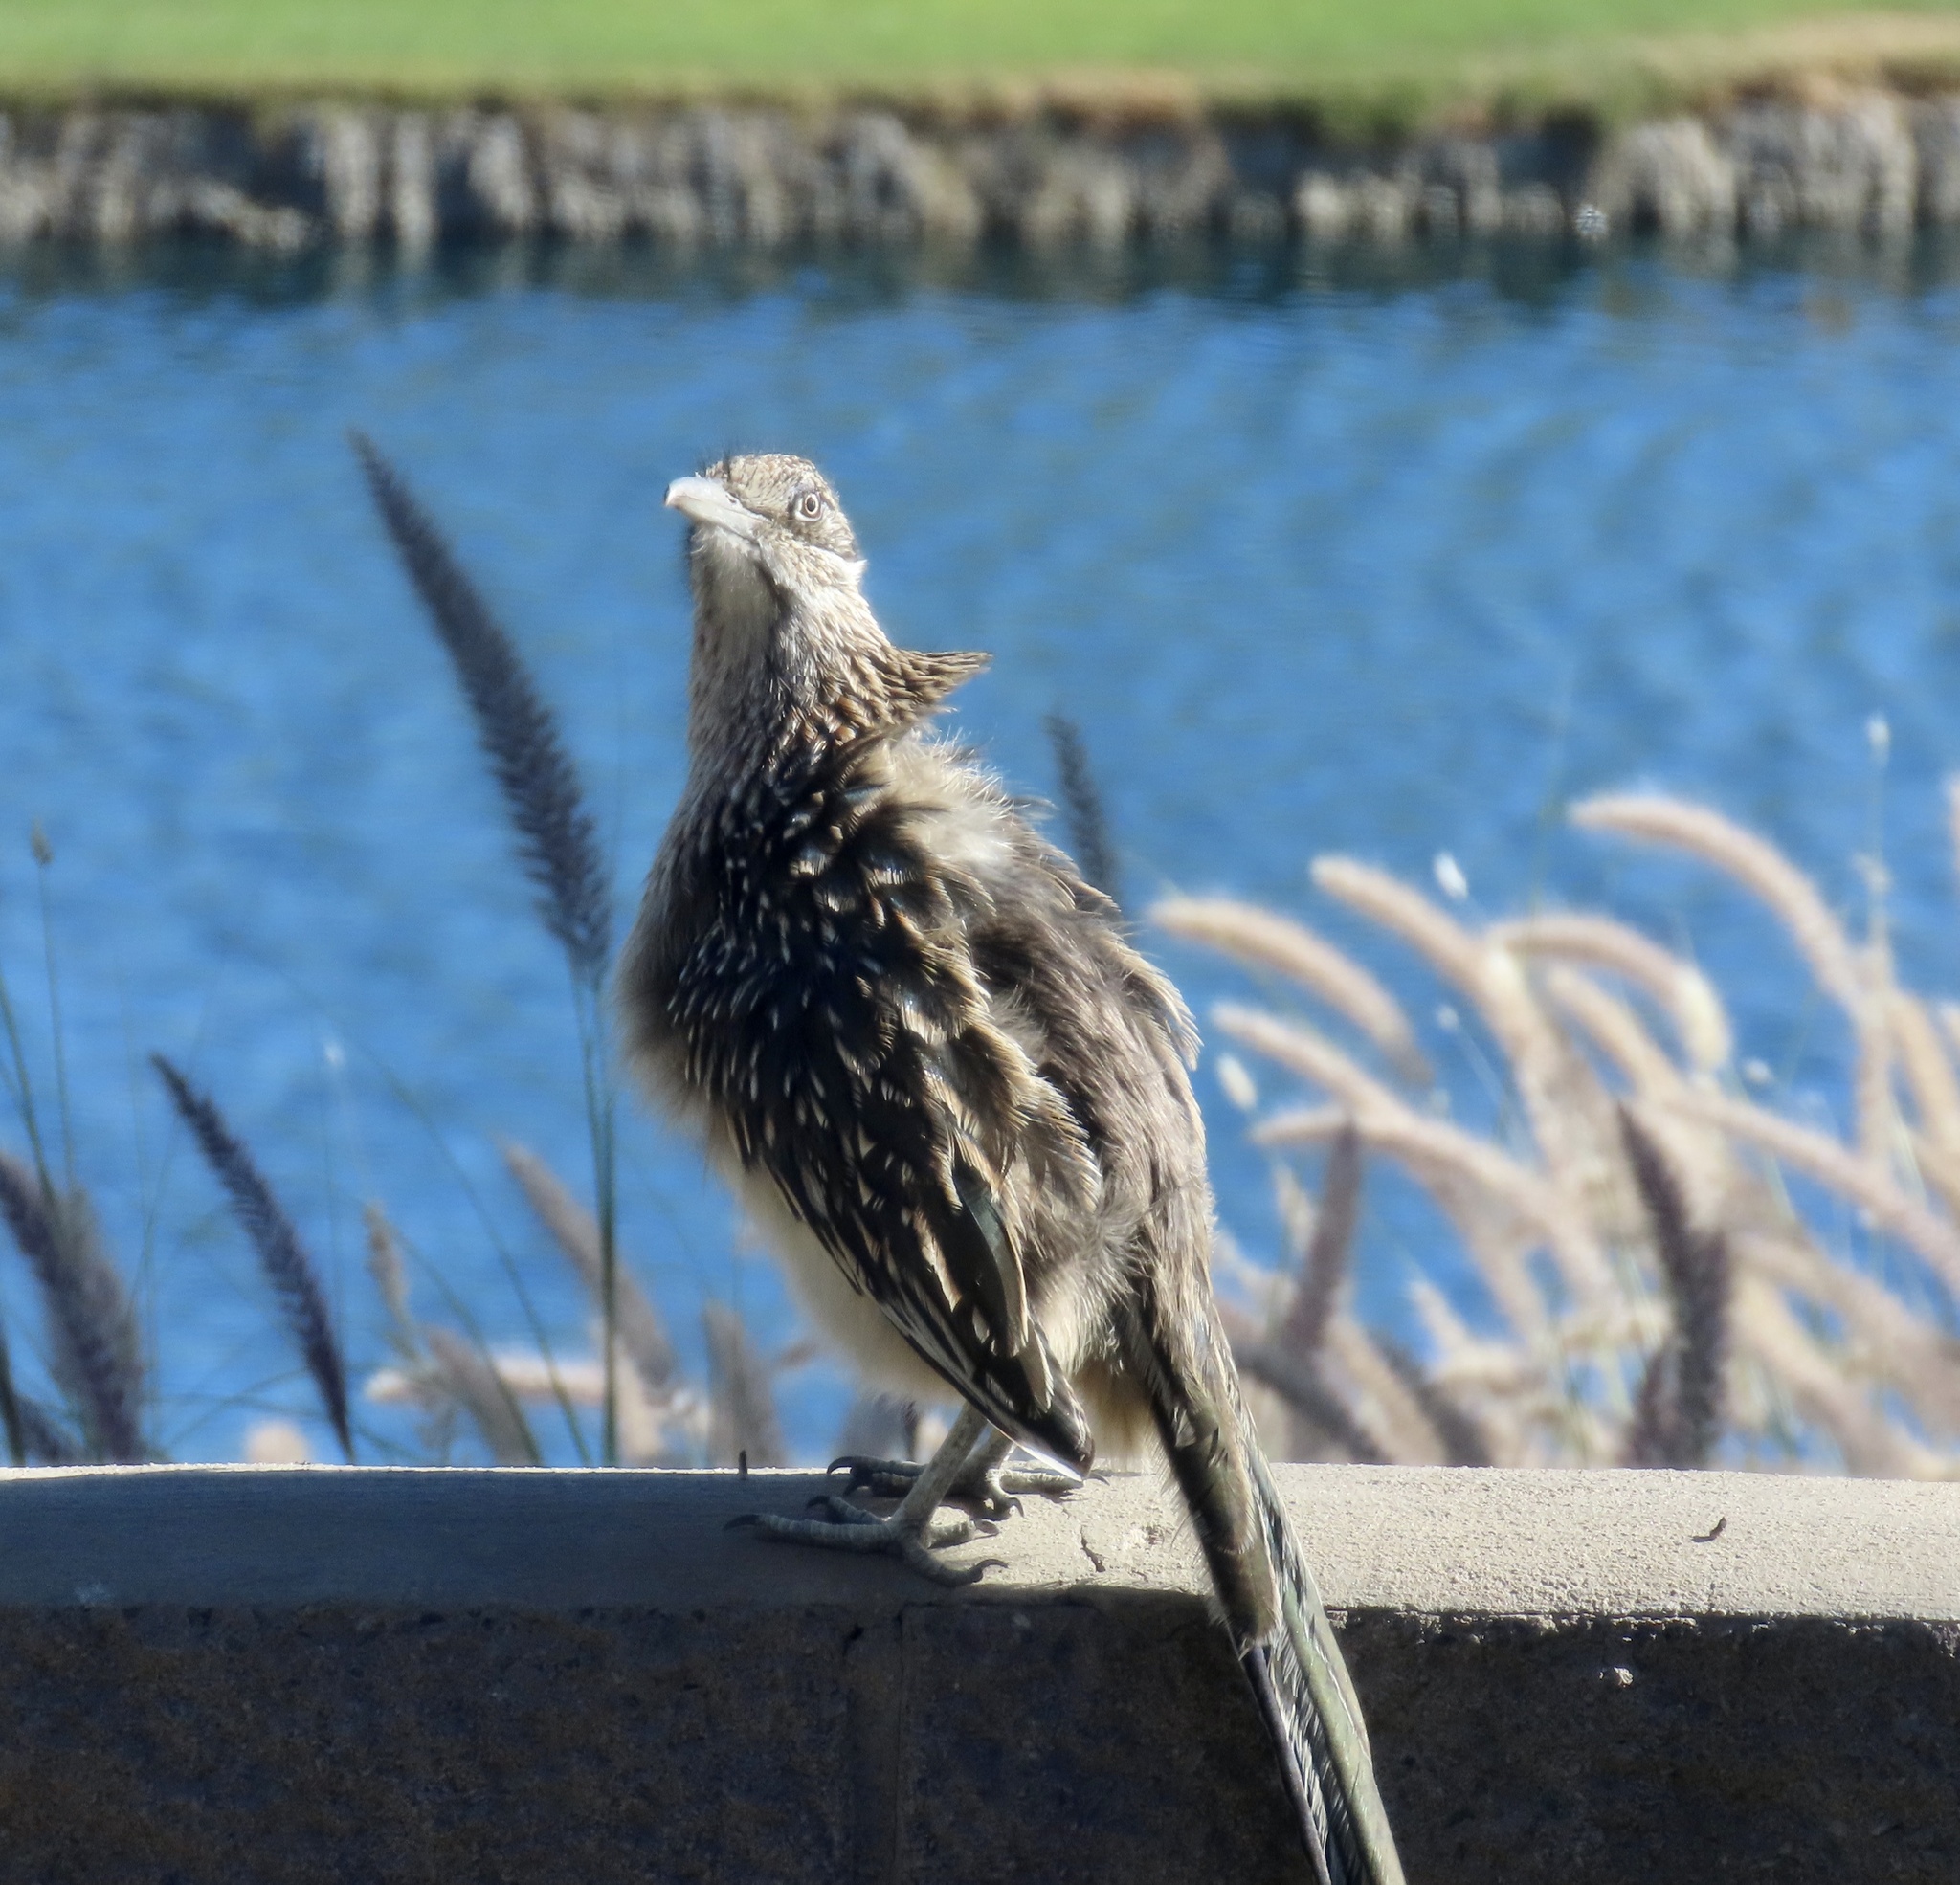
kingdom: Animalia
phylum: Chordata
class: Aves
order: Cuculiformes
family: Cuculidae
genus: Geococcyx
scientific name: Geococcyx californianus
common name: Greater roadrunner
